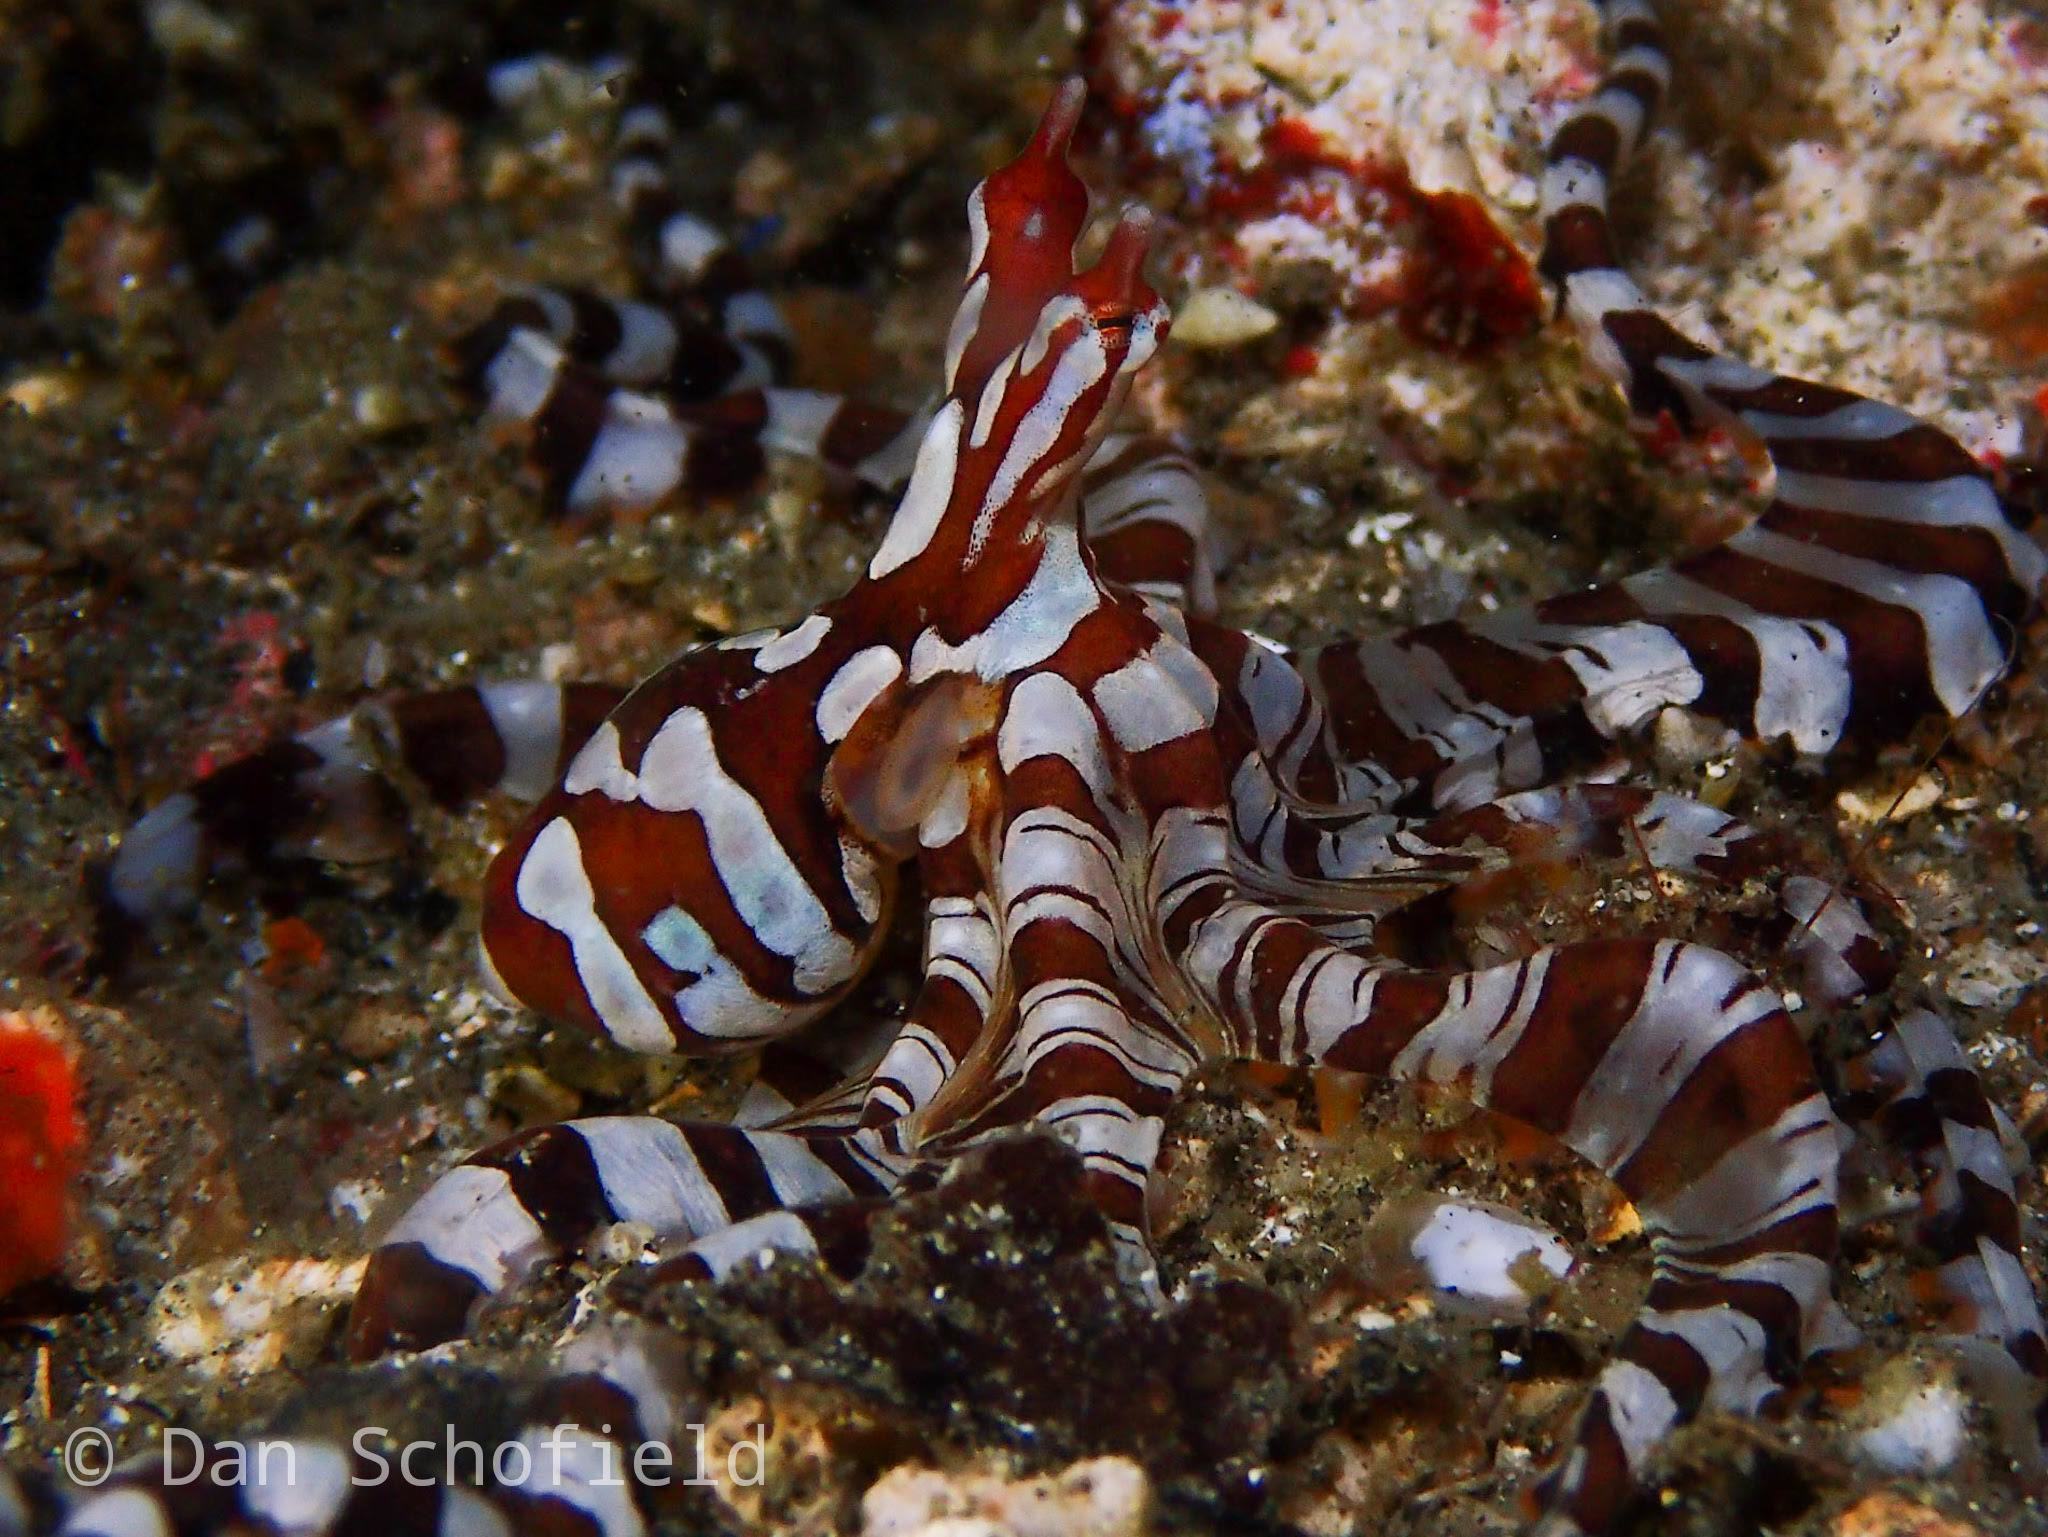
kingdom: Animalia
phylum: Mollusca
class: Cephalopoda
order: Octopoda
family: Octopodidae
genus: Wunderpus
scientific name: Wunderpus photogenicus
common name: Wunderpus
